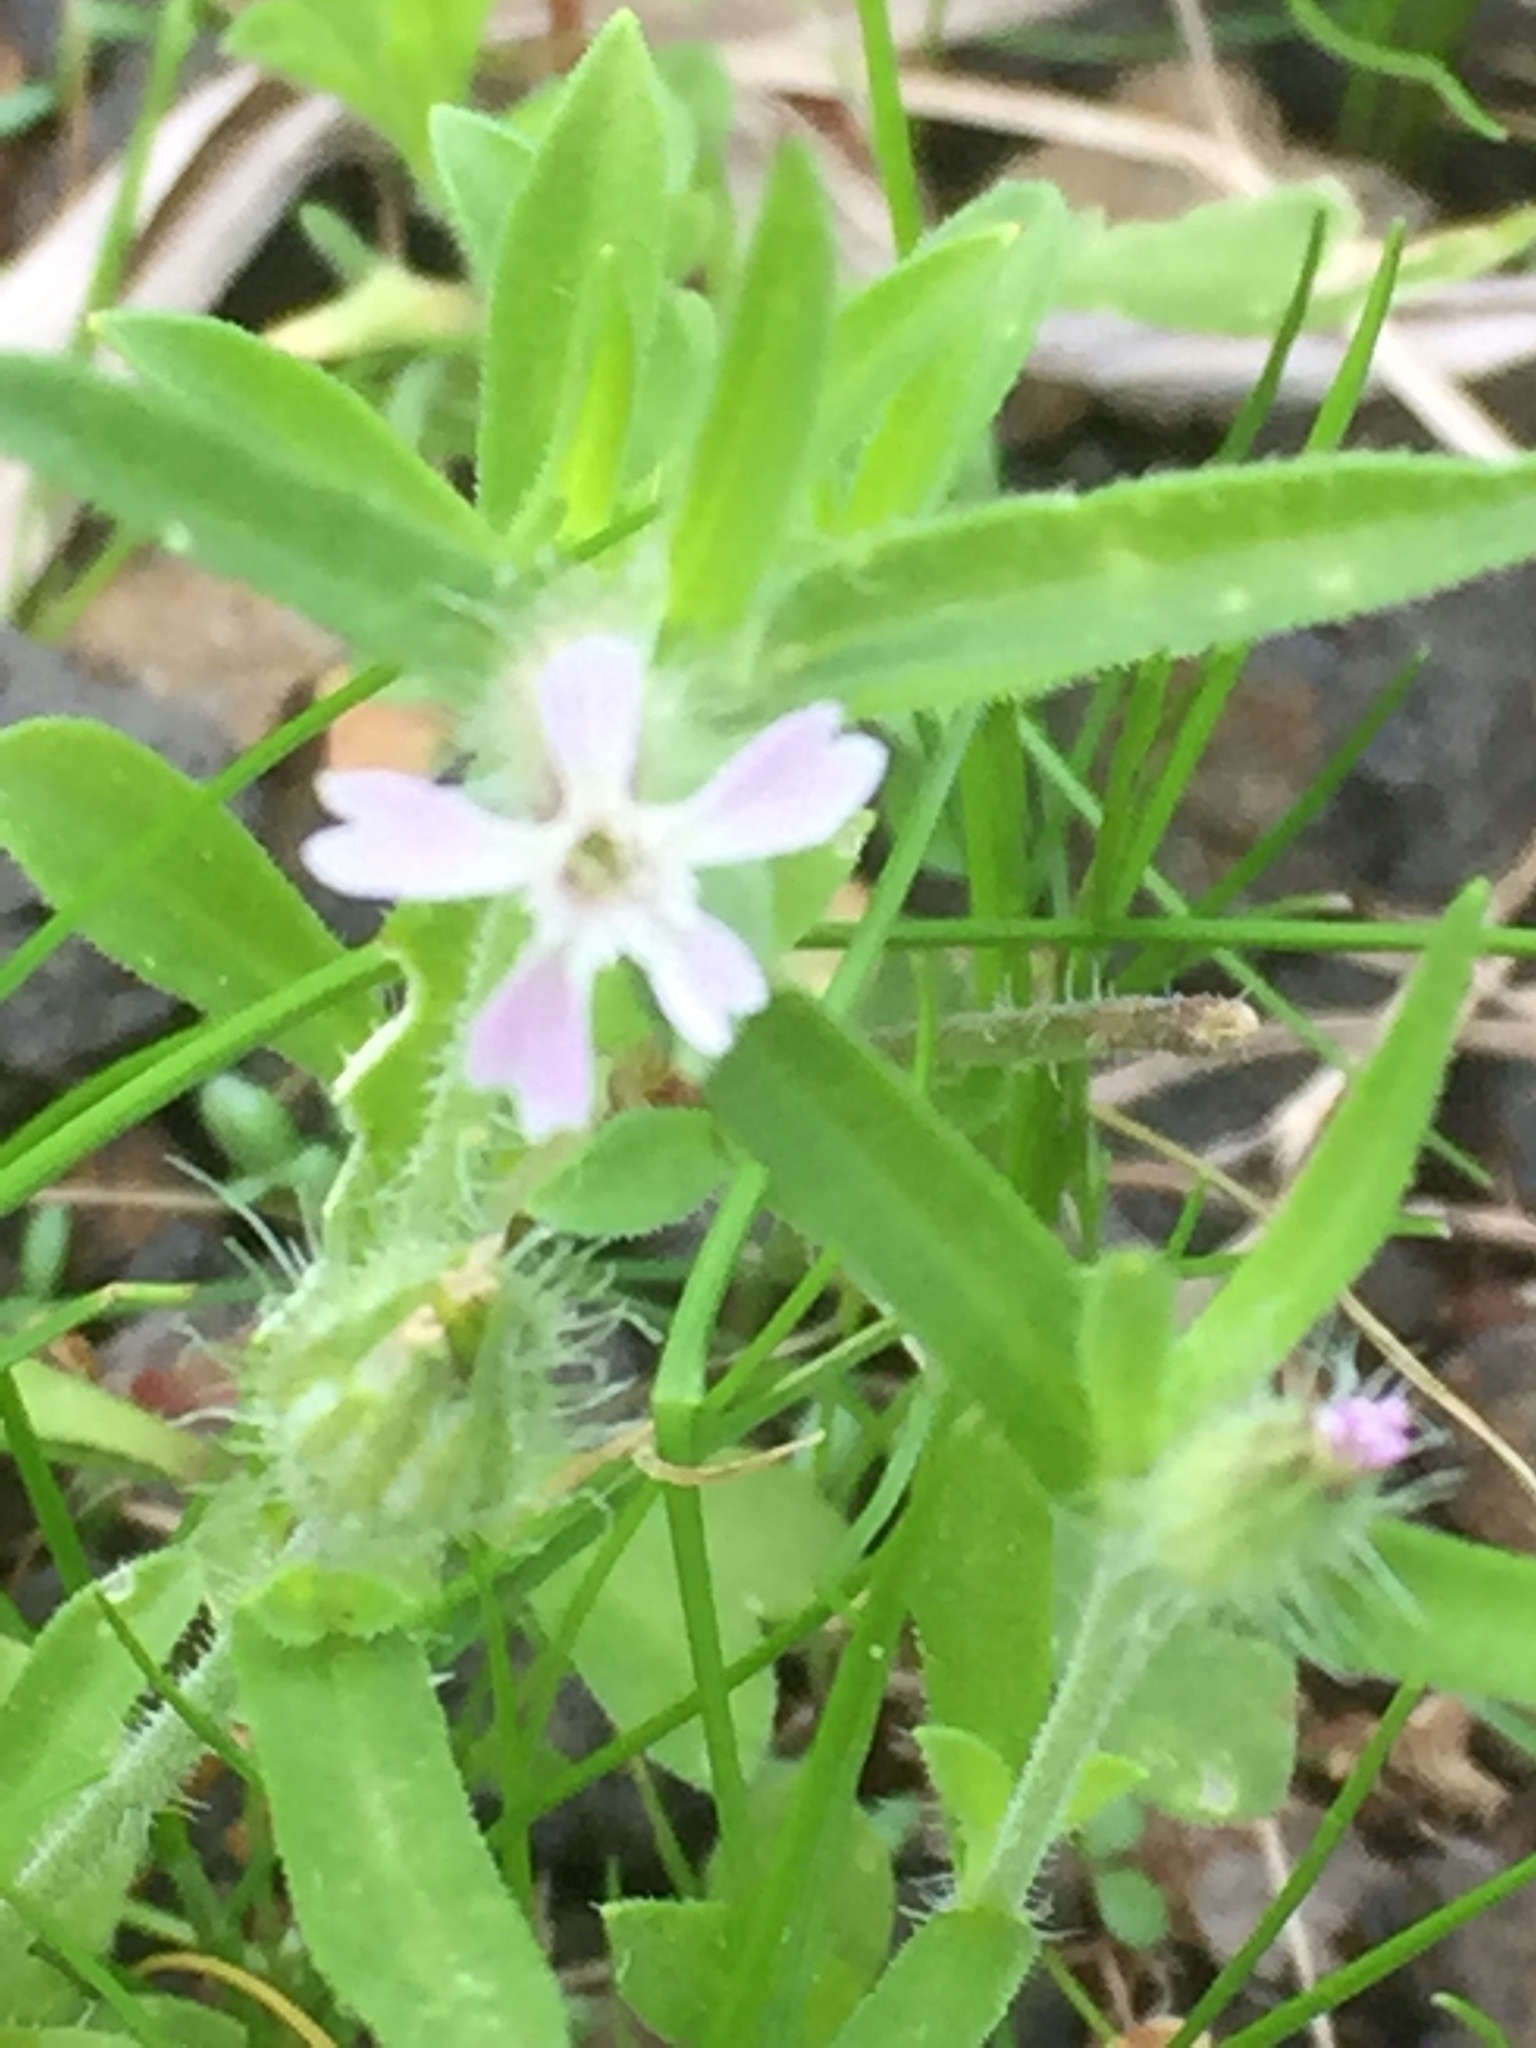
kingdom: Plantae
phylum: Tracheophyta
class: Magnoliopsida
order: Caryophyllales
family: Caryophyllaceae
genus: Silene
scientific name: Silene gallica
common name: Small-flowered catchfly
